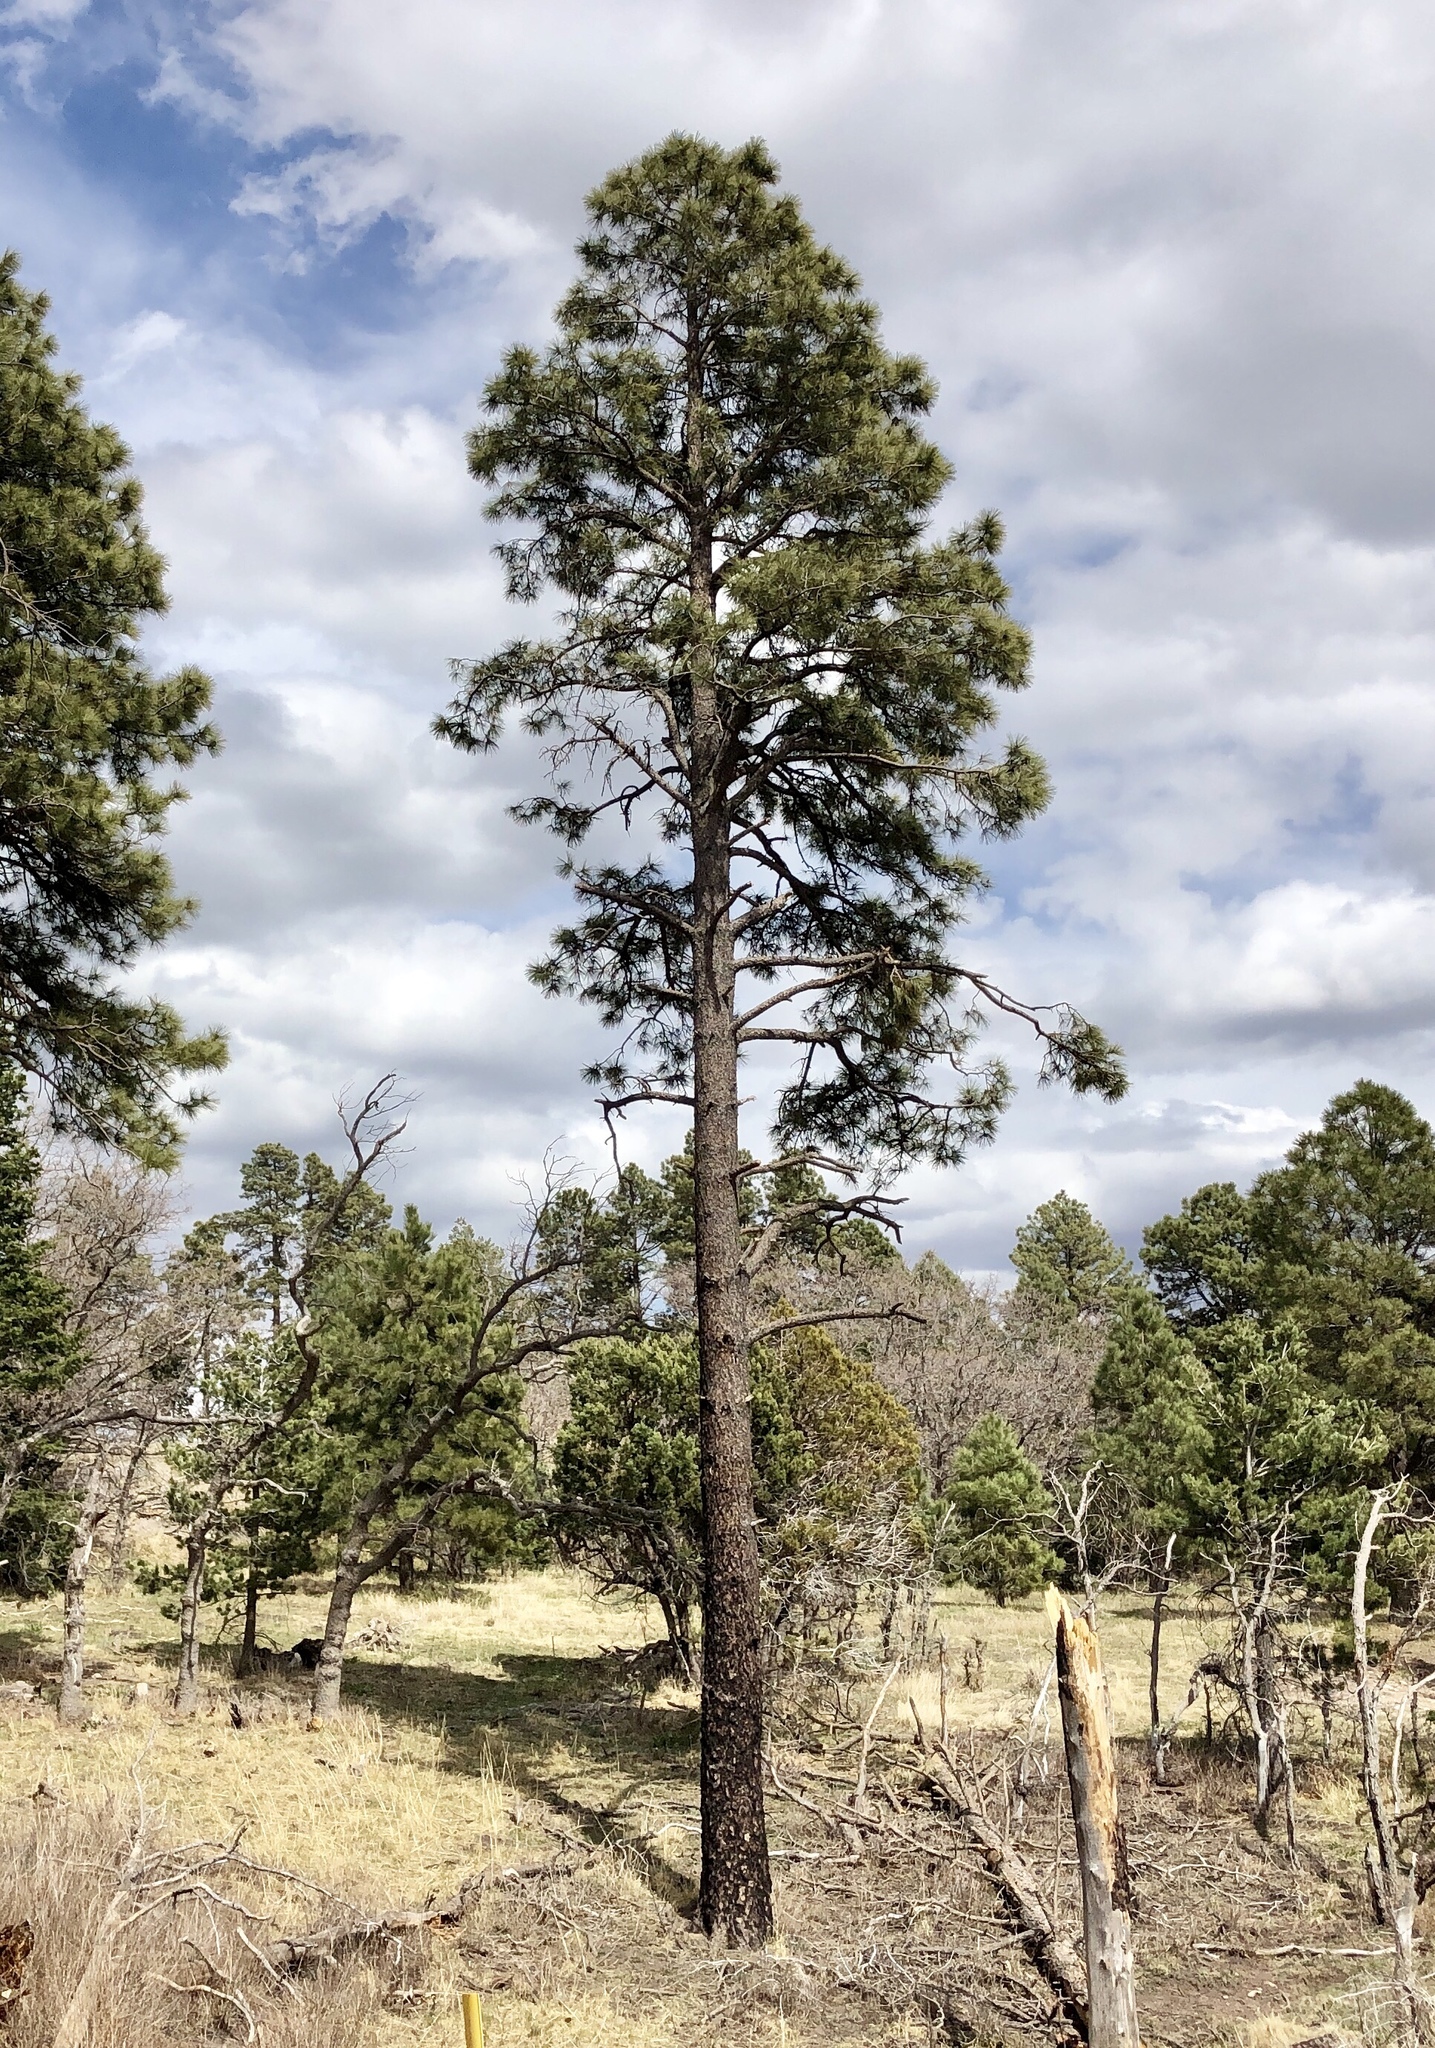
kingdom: Plantae
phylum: Tracheophyta
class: Pinopsida
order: Pinales
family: Pinaceae
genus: Pinus
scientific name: Pinus ponderosa
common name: Western yellow-pine
